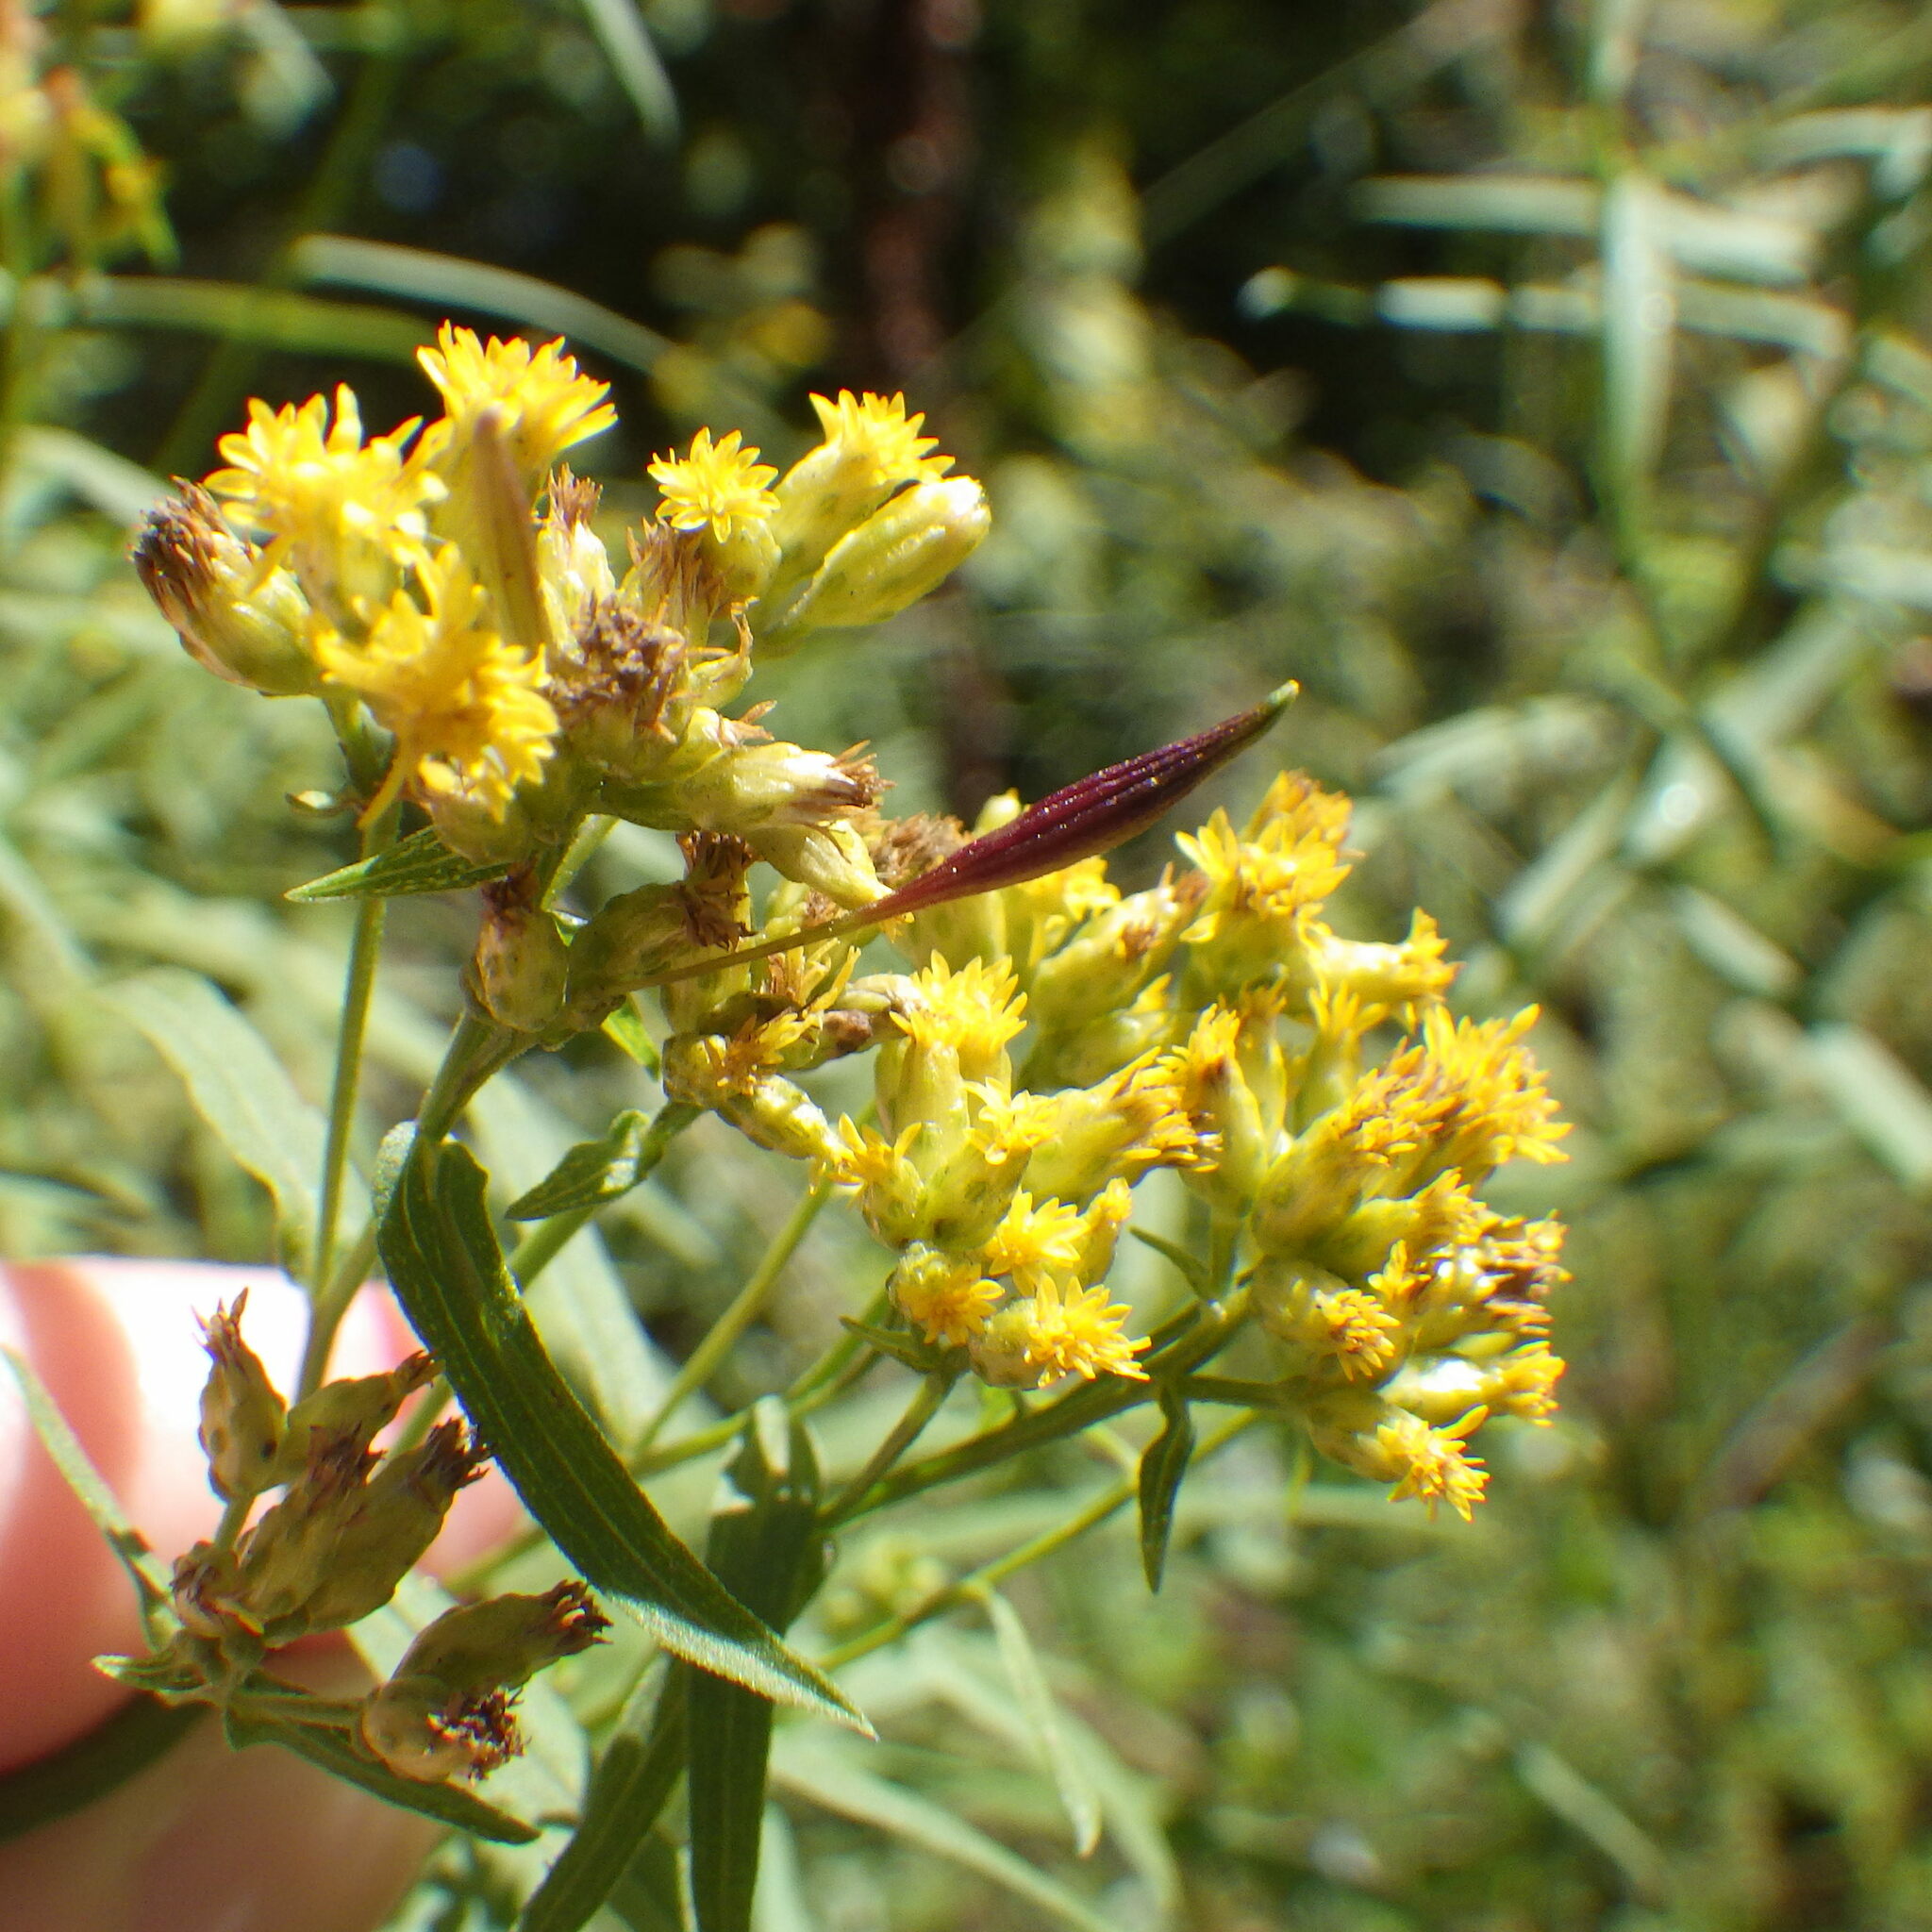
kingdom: Animalia
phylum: Arthropoda
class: Insecta
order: Diptera
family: Cecidomyiidae
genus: Rhopalomyia
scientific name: Rhopalomyia pedicellata
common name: Goldentop pedicellate gall midge
